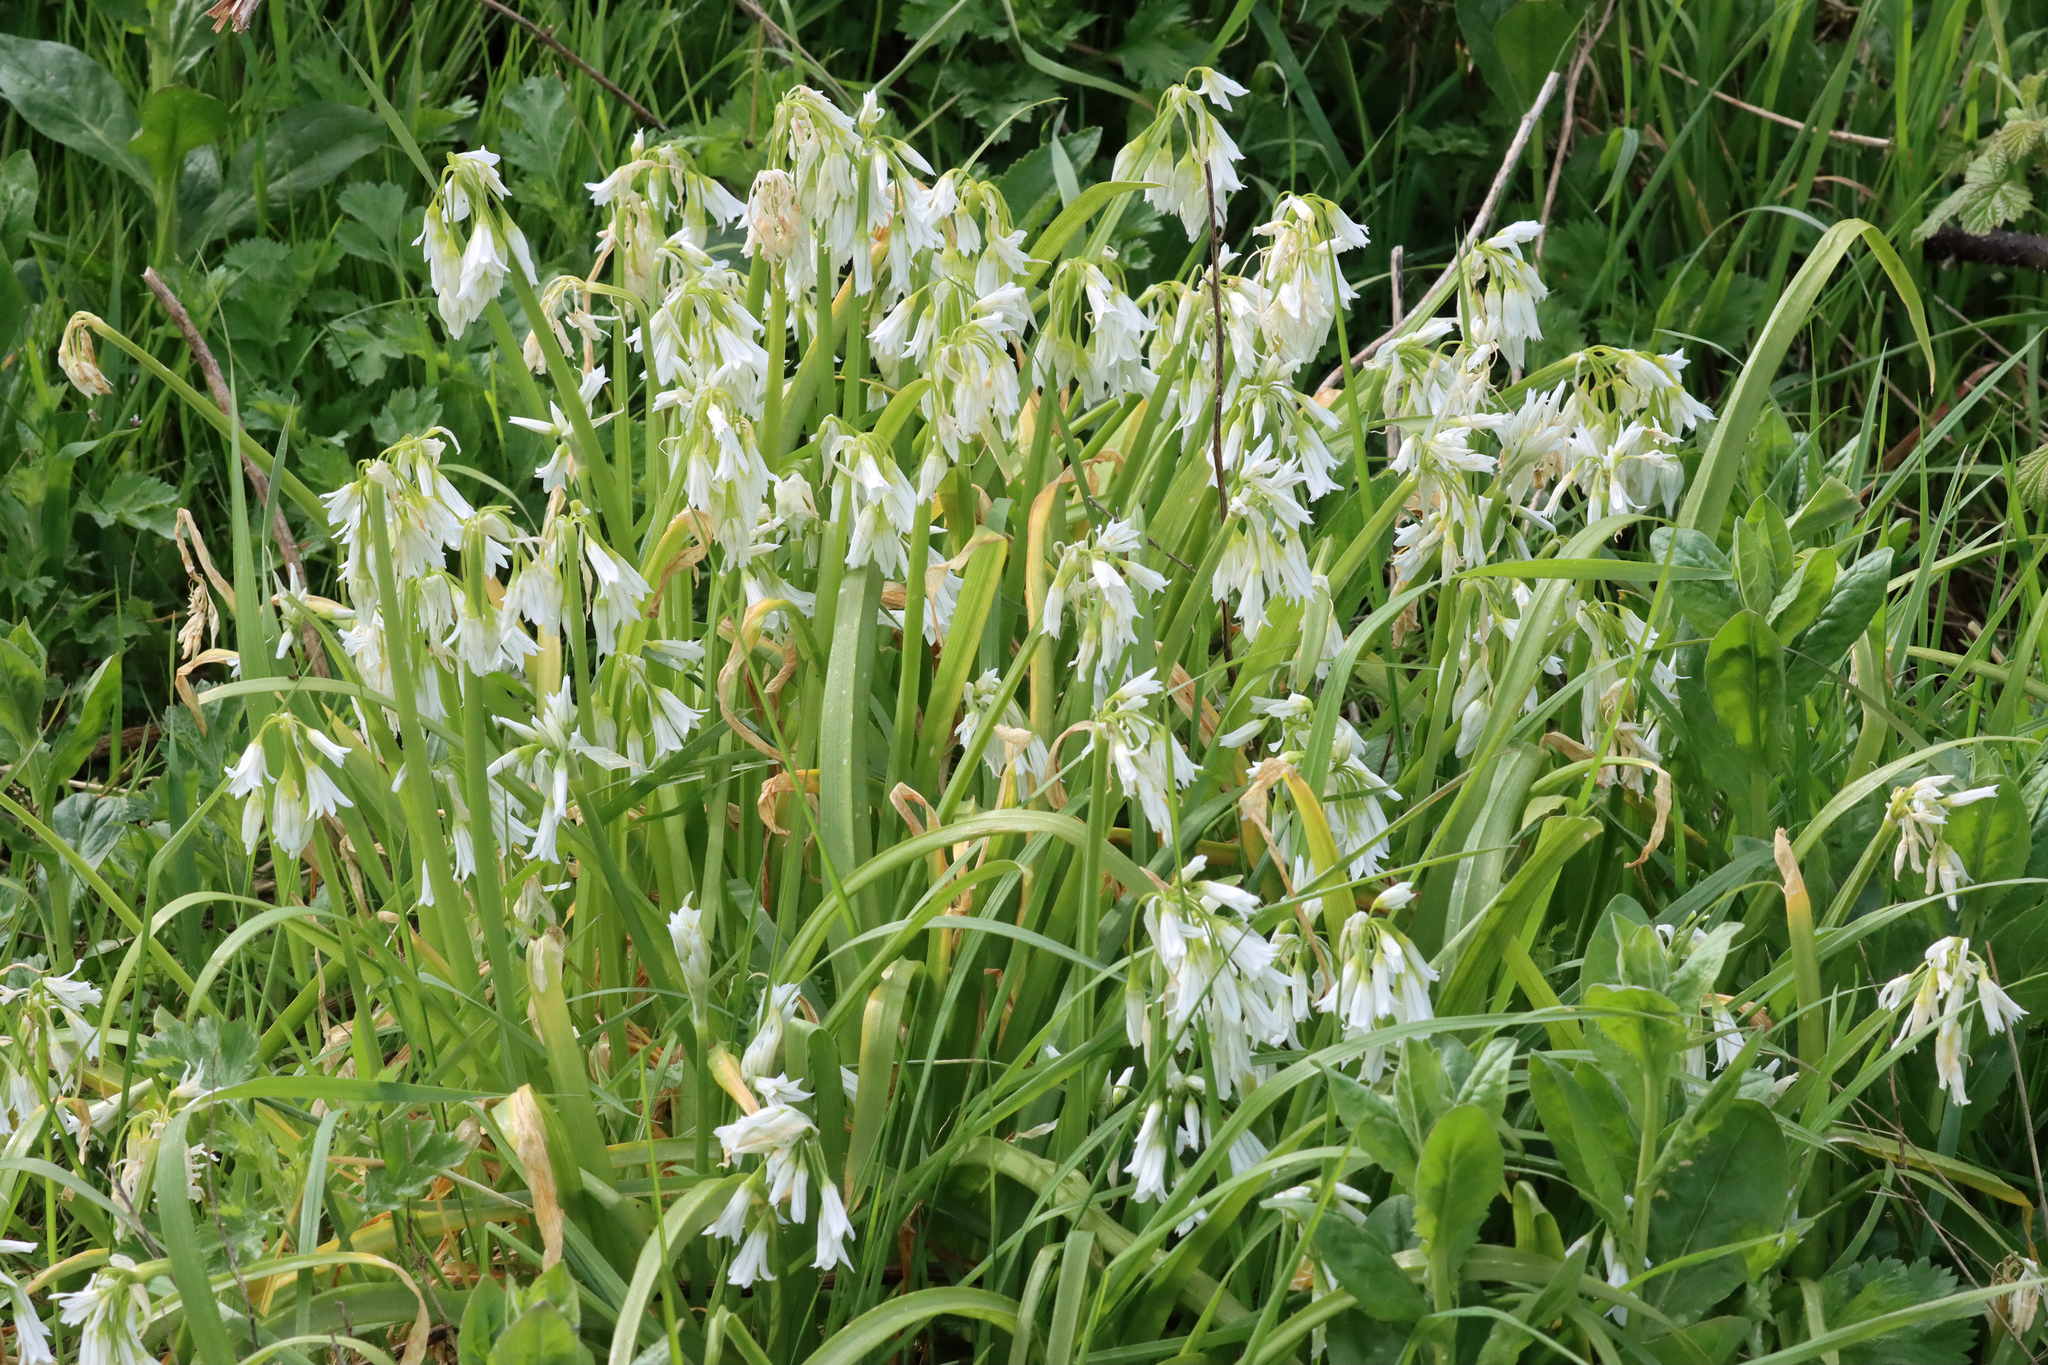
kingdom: Plantae
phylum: Tracheophyta
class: Liliopsida
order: Asparagales
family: Amaryllidaceae
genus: Allium
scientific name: Allium triquetrum
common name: Three-cornered garlic
